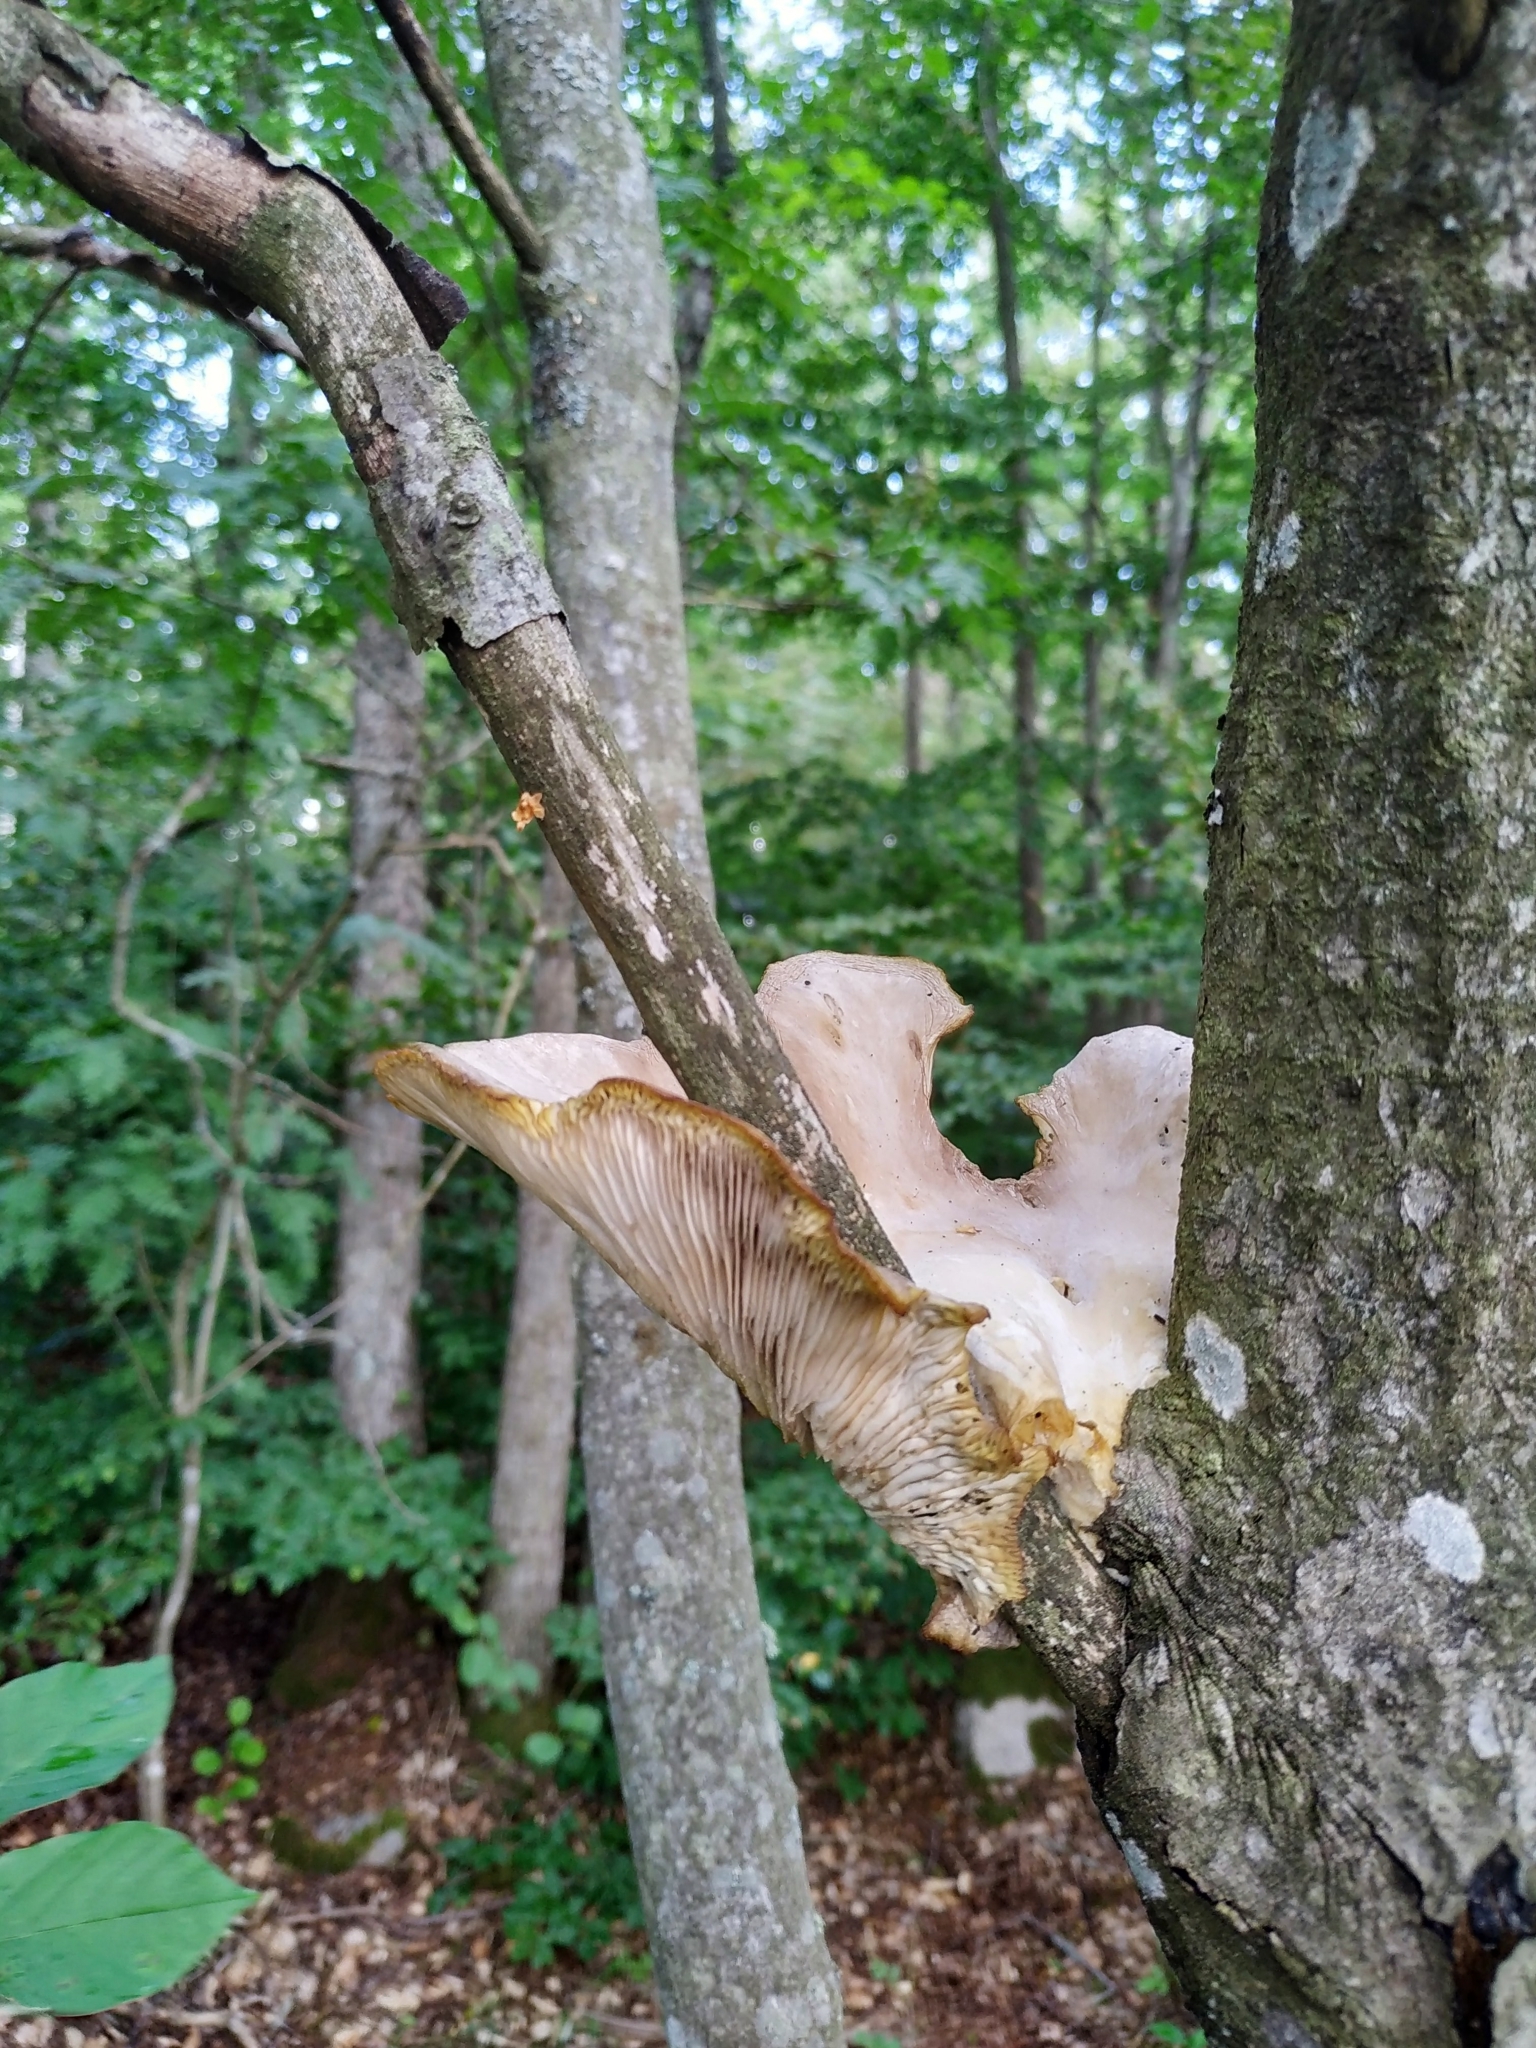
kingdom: Fungi
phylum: Basidiomycota
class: Agaricomycetes
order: Agaricales
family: Pleurotaceae
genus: Pleurotus
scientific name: Pleurotus ostreatus
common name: Oyster mushroom
